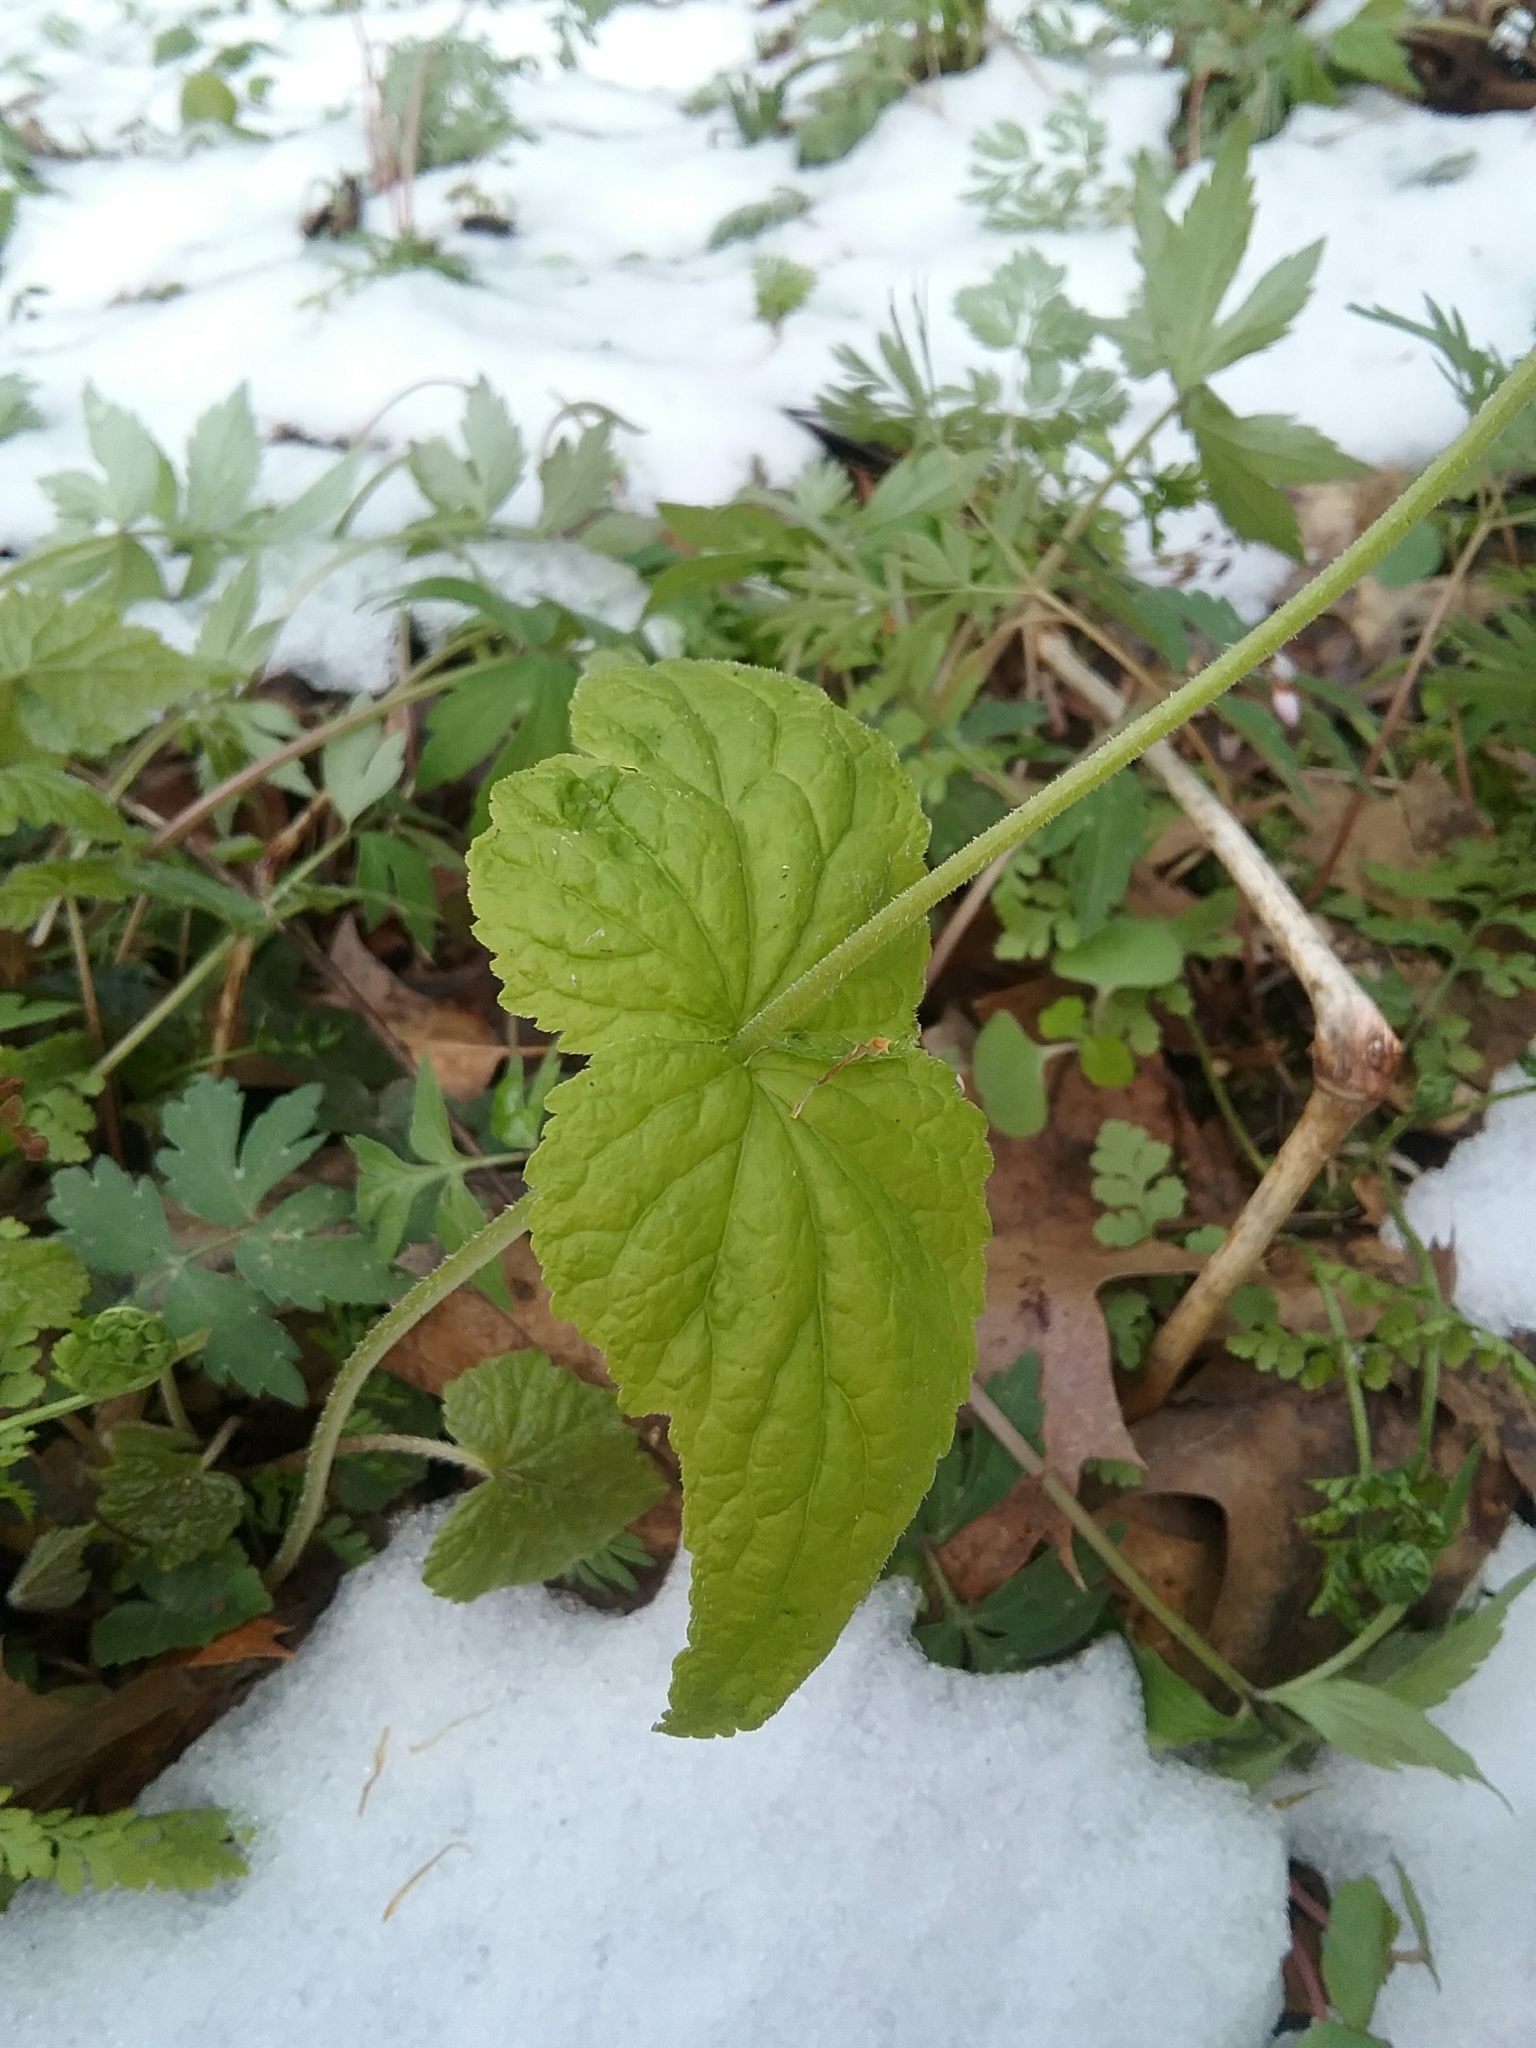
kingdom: Plantae
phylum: Tracheophyta
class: Magnoliopsida
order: Saxifragales
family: Saxifragaceae
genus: Mitella
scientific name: Mitella diphylla
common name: Coolwort
